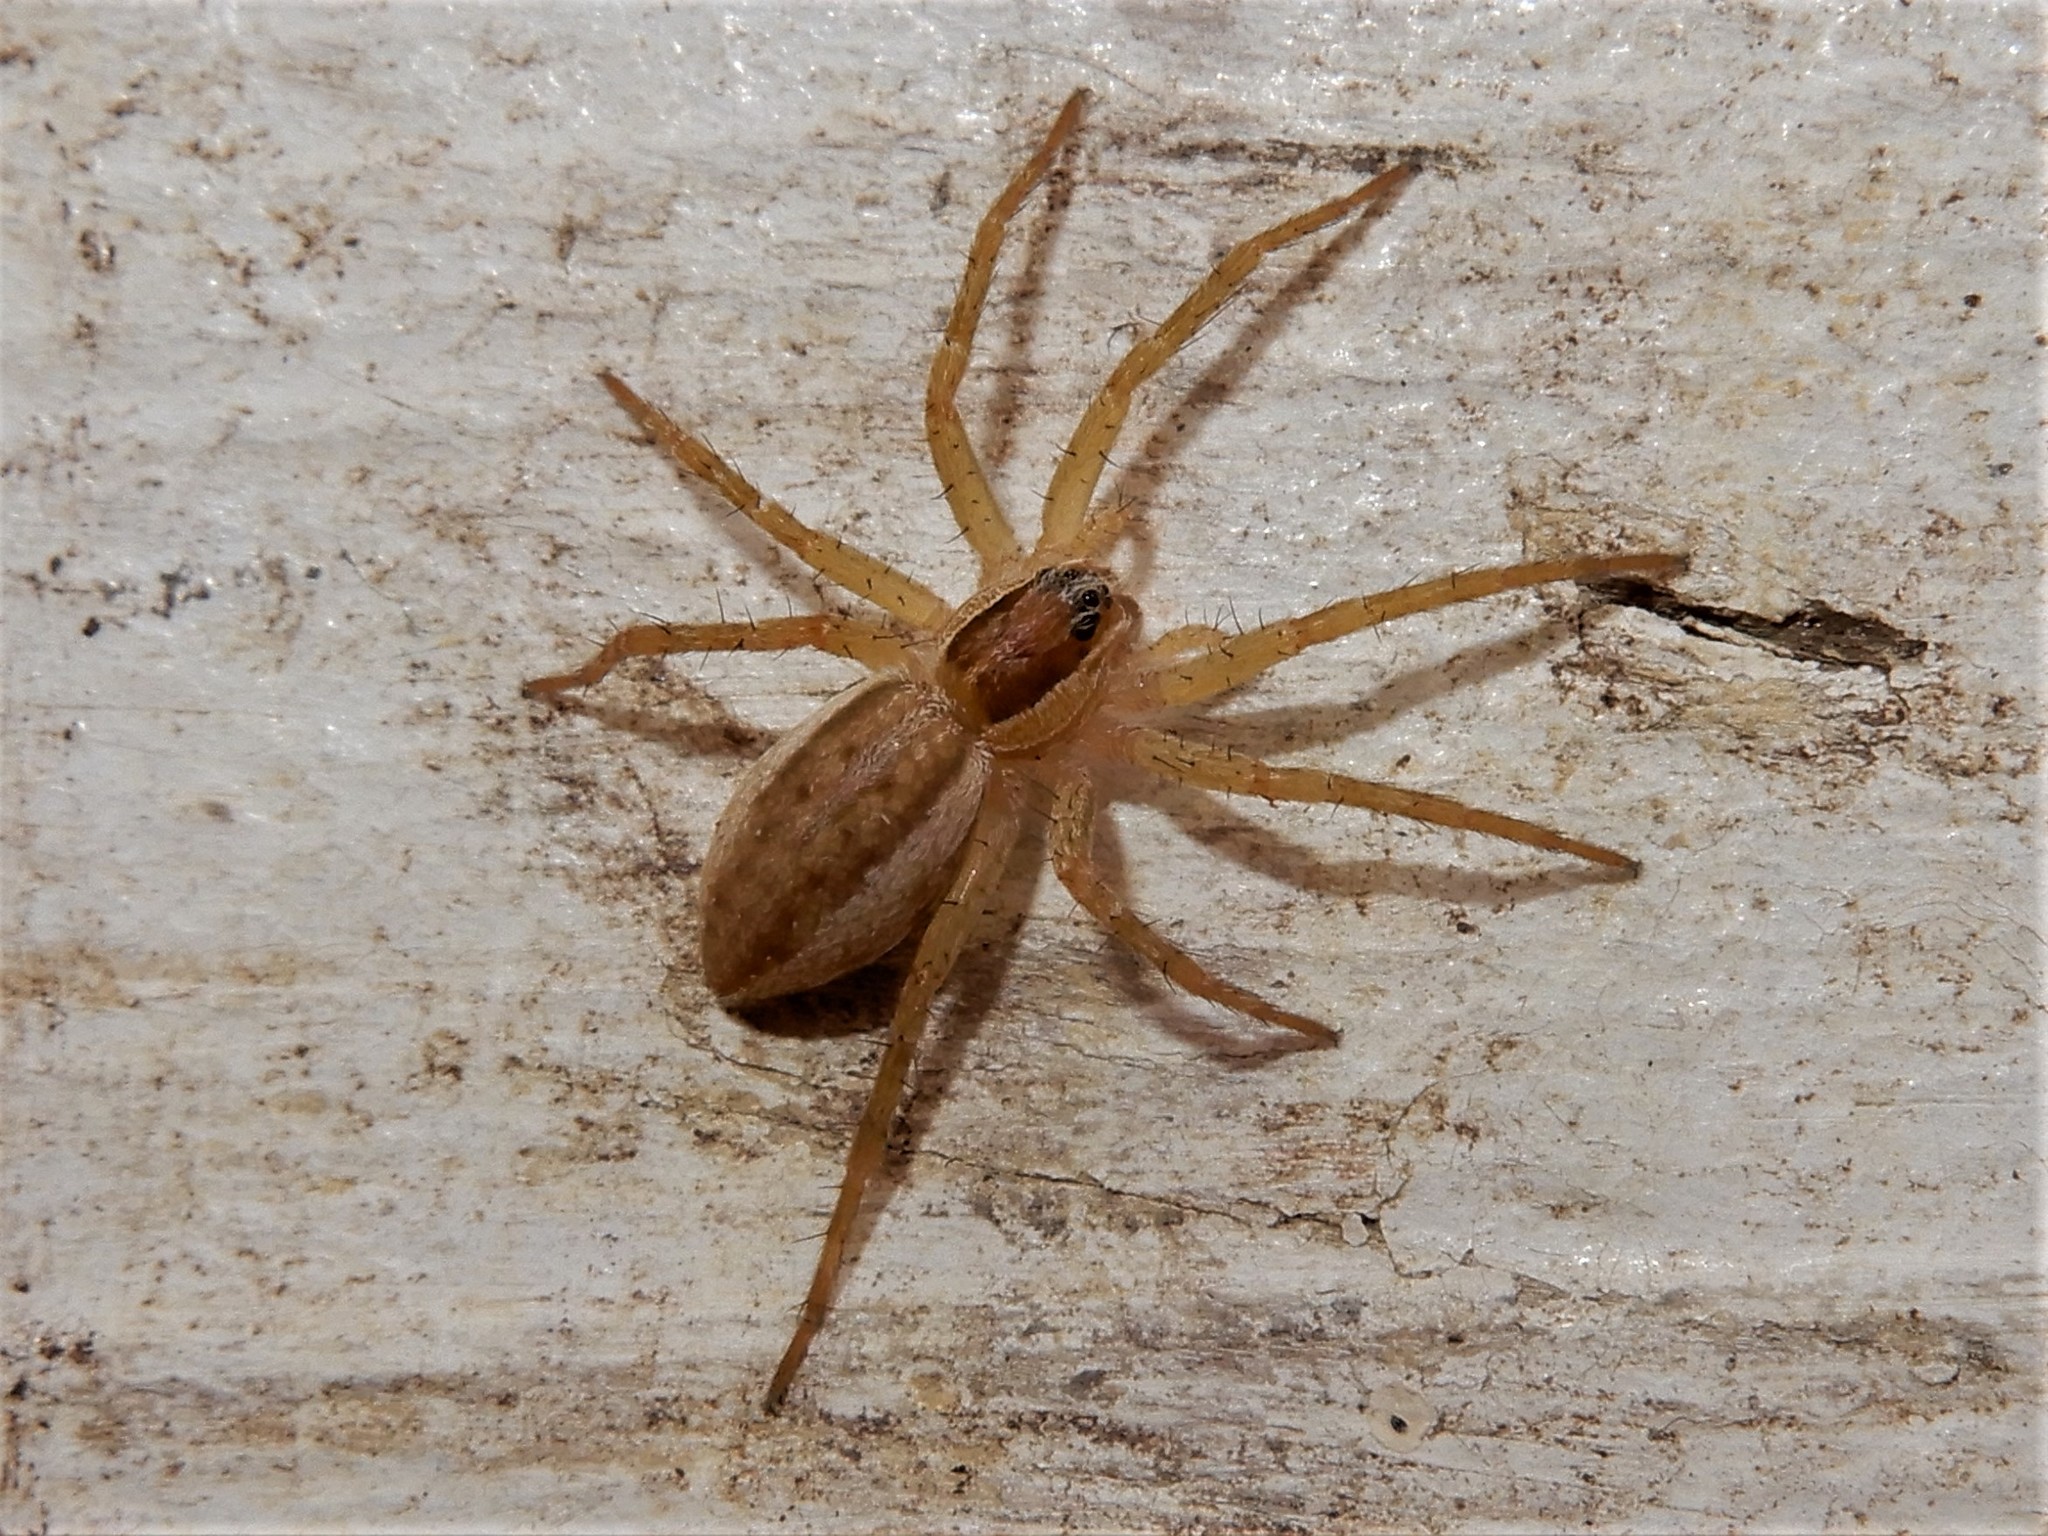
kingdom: Animalia
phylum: Arthropoda
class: Arachnida
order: Araneae
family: Pisauridae
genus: Dolomedes
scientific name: Dolomedes minor
